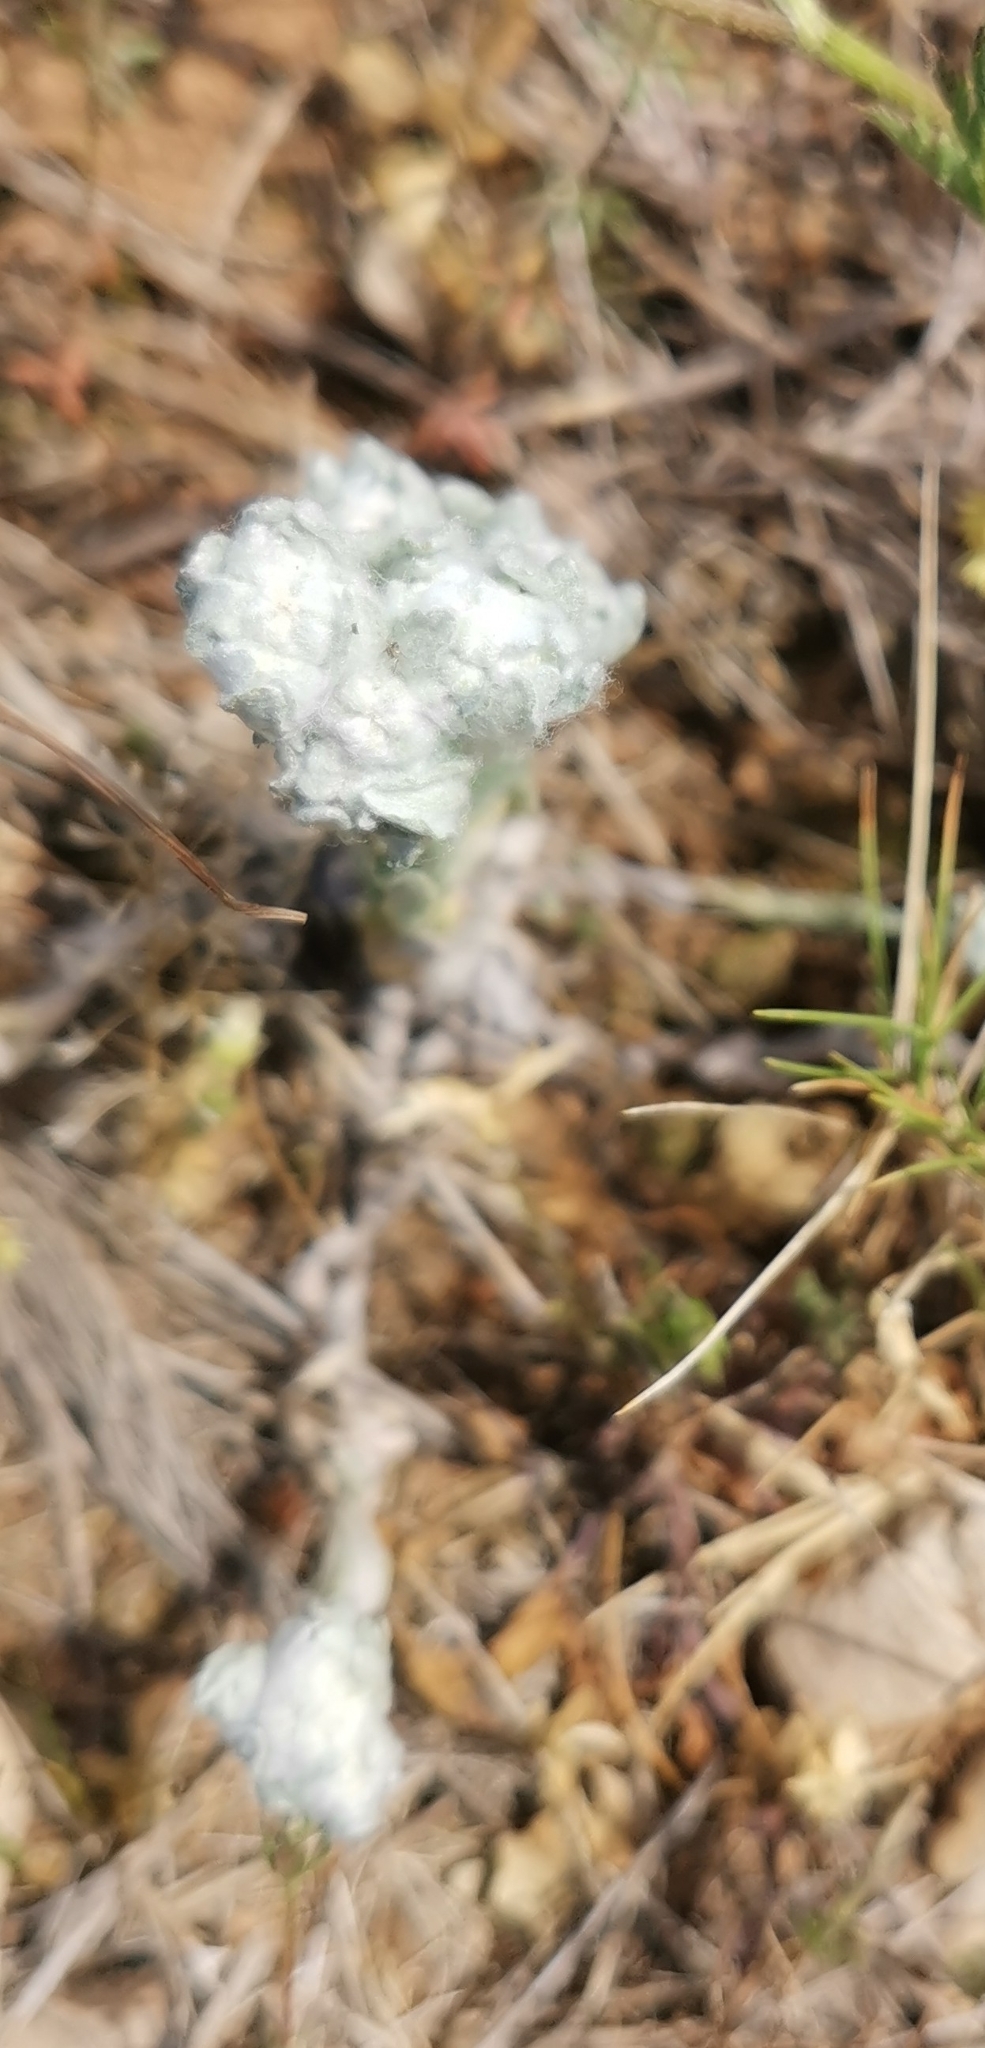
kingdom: Plantae
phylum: Tracheophyta
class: Magnoliopsida
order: Asterales
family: Asteraceae
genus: Bombycilaena
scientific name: Bombycilaena erecta
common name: Micropus
